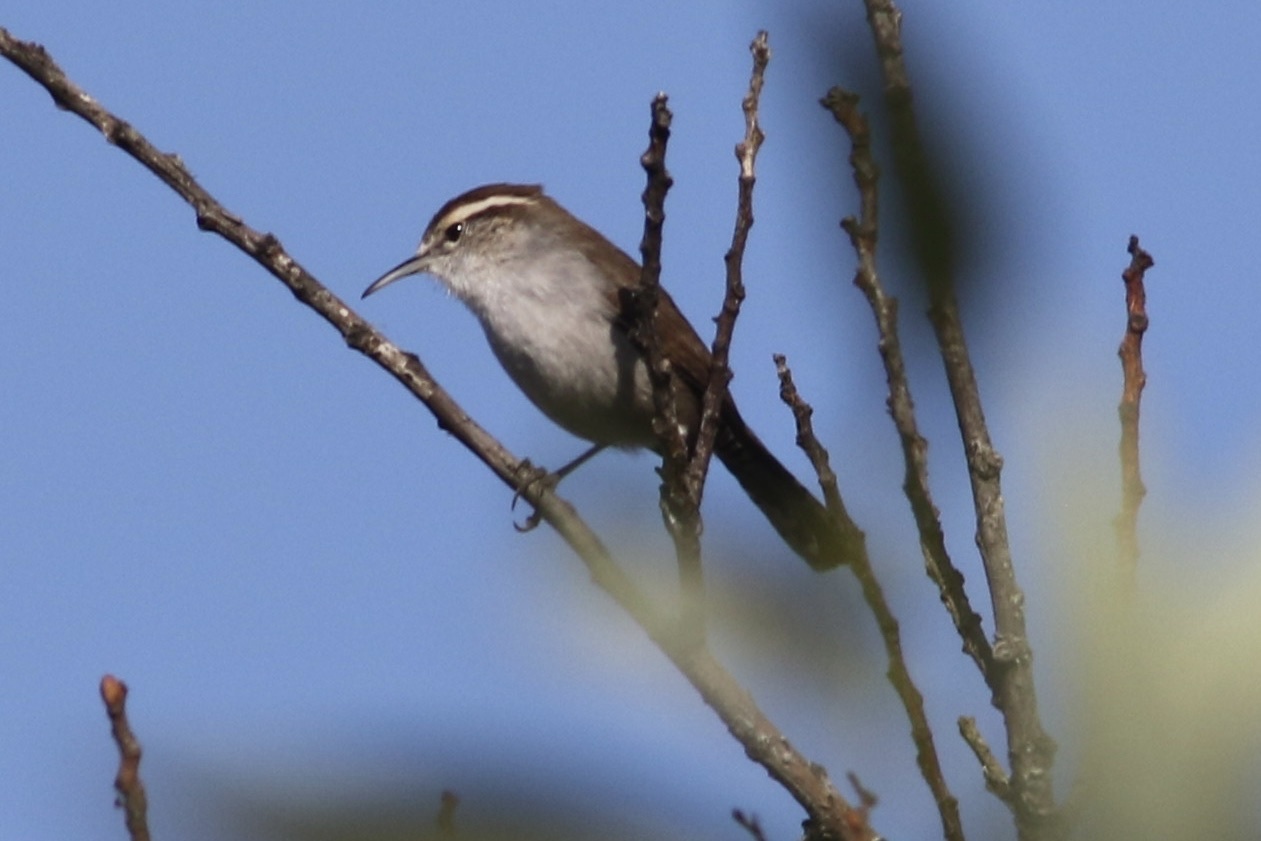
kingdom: Animalia
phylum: Chordata
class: Aves
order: Passeriformes
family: Troglodytidae
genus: Thryomanes
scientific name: Thryomanes bewickii
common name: Bewick's wren
